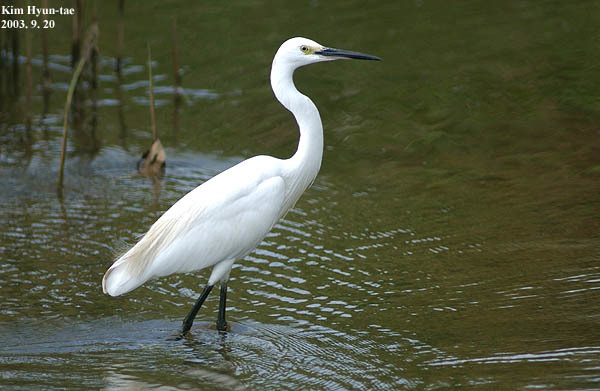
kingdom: Animalia
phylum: Chordata
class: Aves
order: Pelecaniformes
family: Ardeidae
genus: Egretta
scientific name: Egretta garzetta
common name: Little egret
